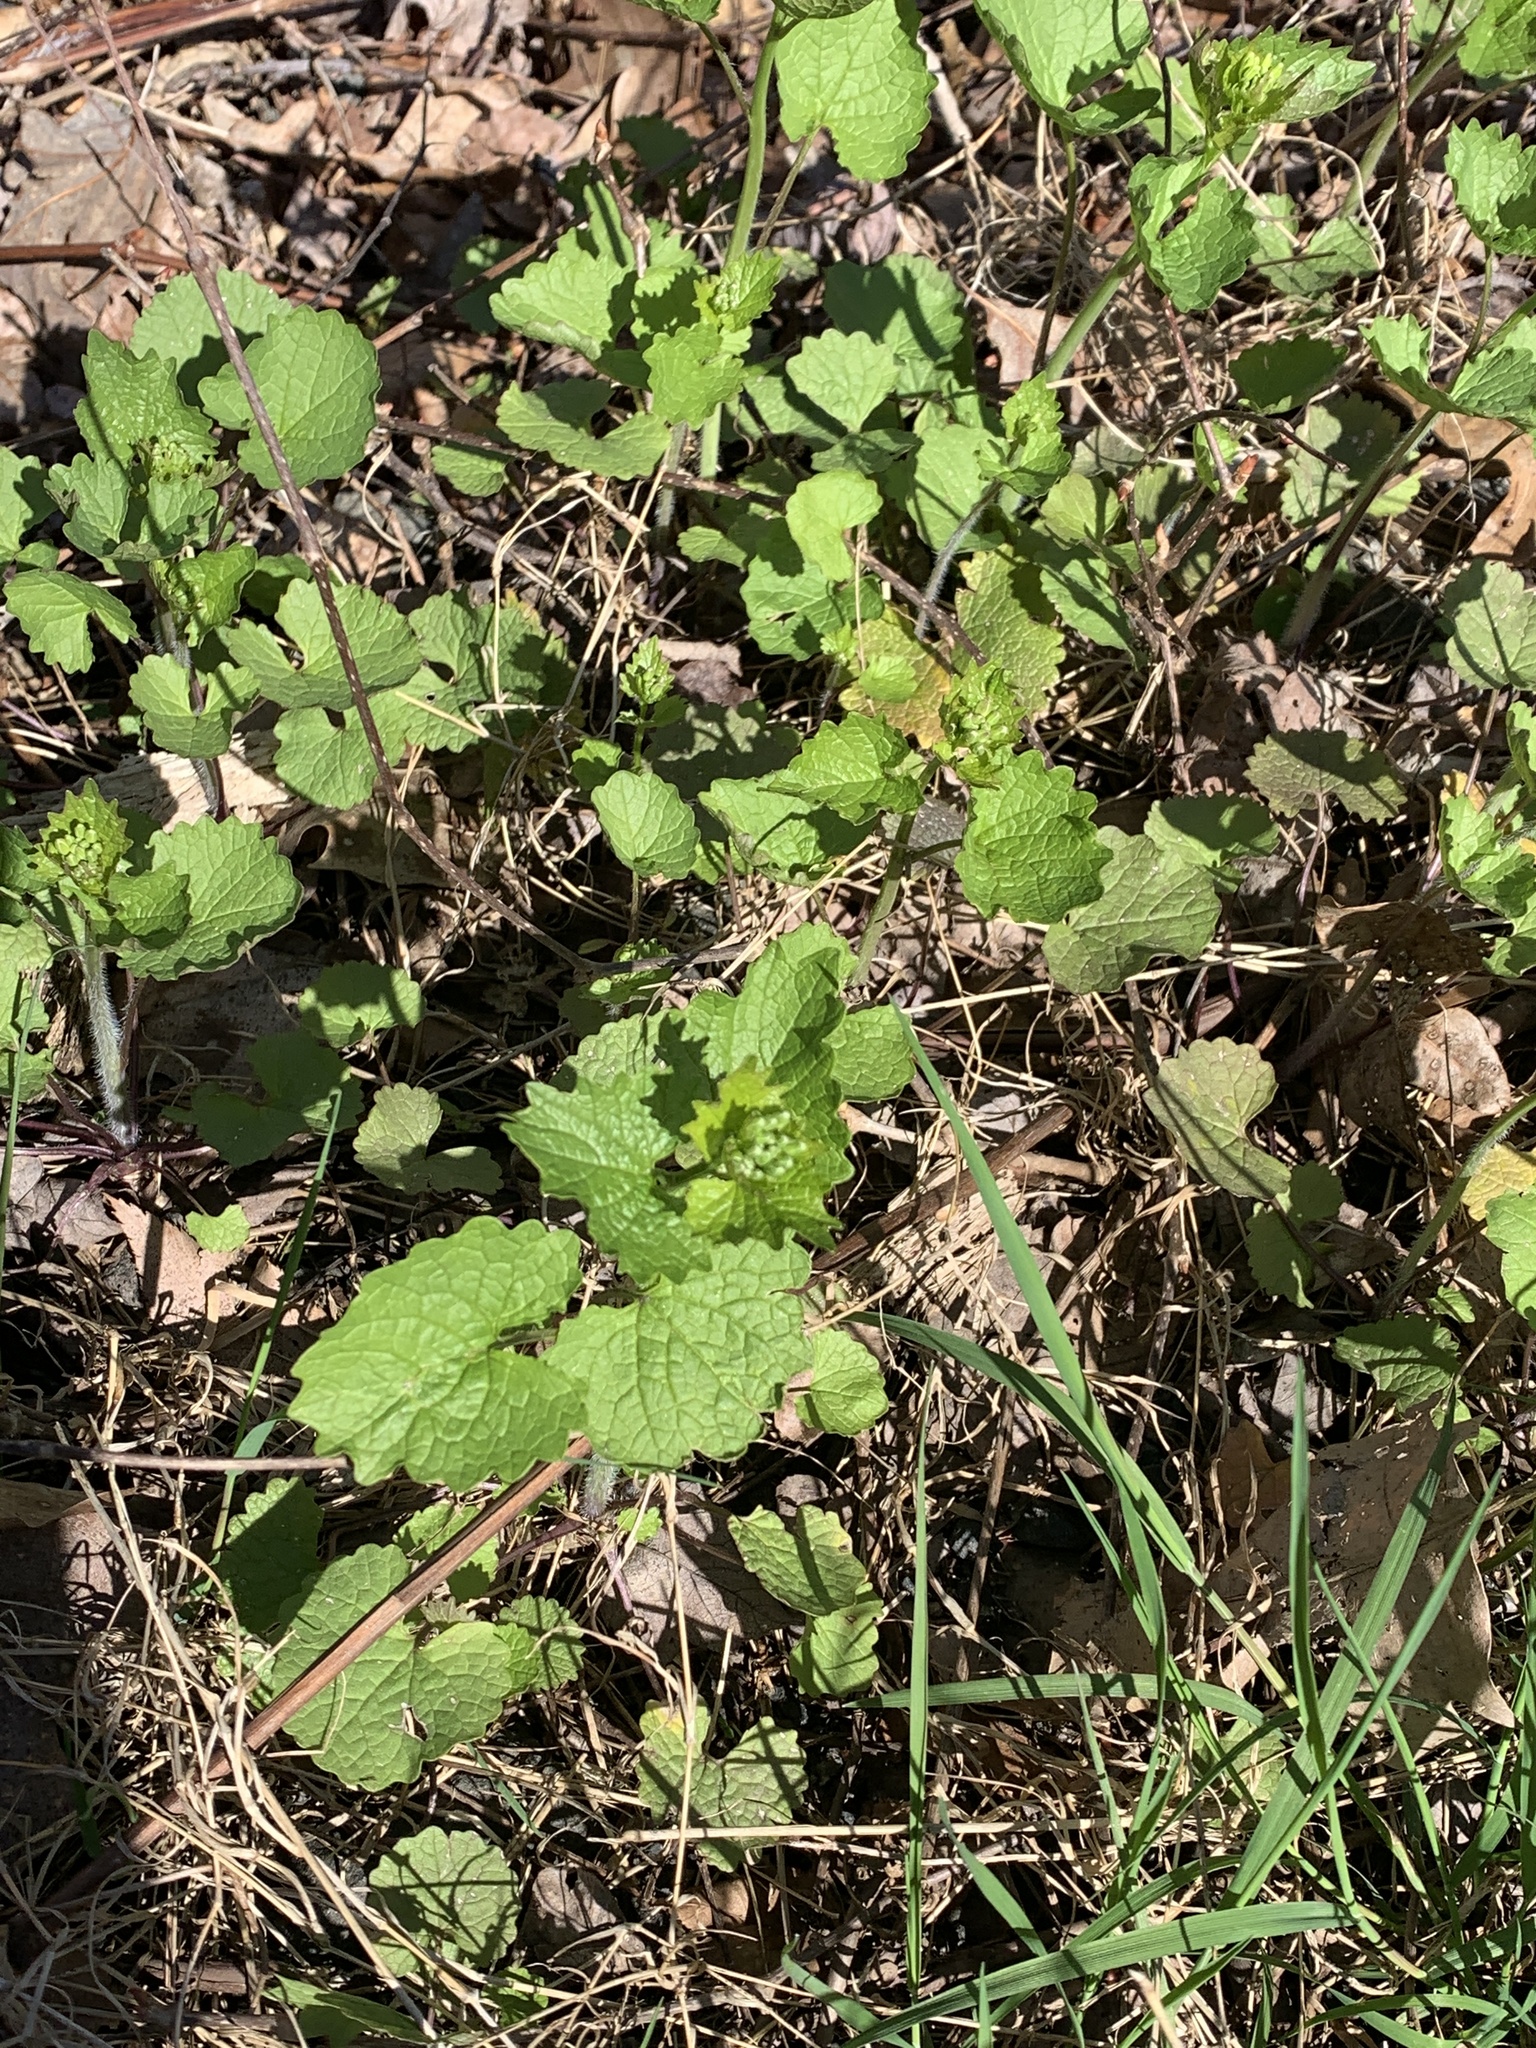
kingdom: Plantae
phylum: Tracheophyta
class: Magnoliopsida
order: Brassicales
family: Brassicaceae
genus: Alliaria
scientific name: Alliaria petiolata
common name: Garlic mustard
